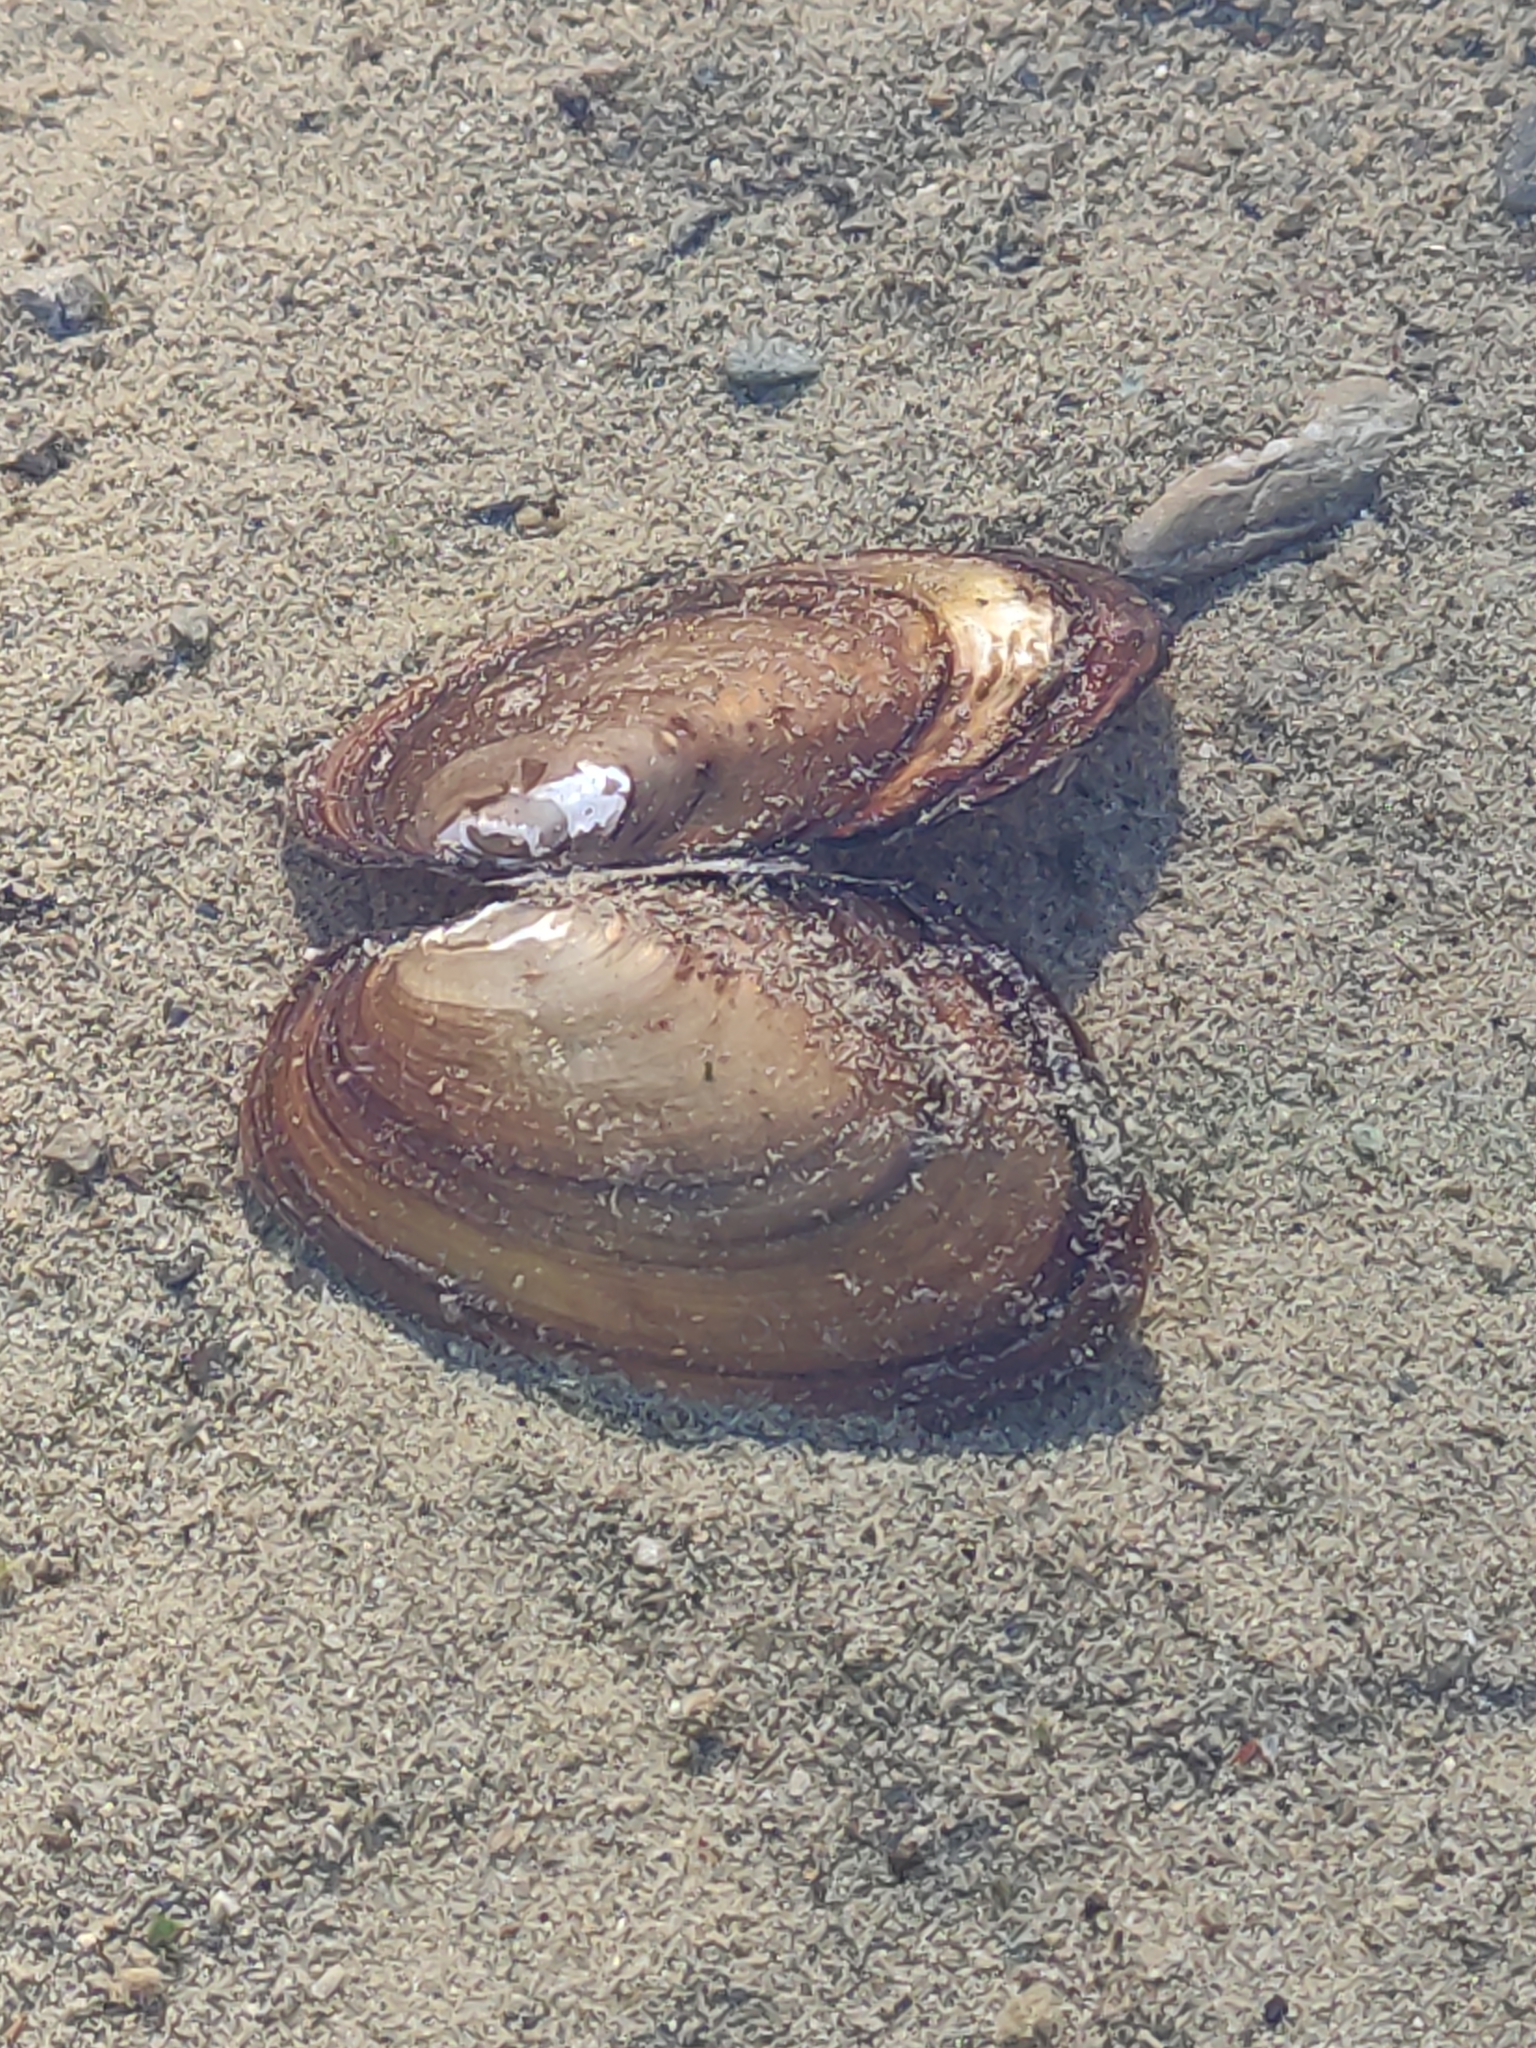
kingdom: Animalia
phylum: Mollusca
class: Bivalvia
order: Unionida
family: Hyriidae
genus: Echyridella
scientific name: Echyridella menziesii
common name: New zealand freshwater mussel
